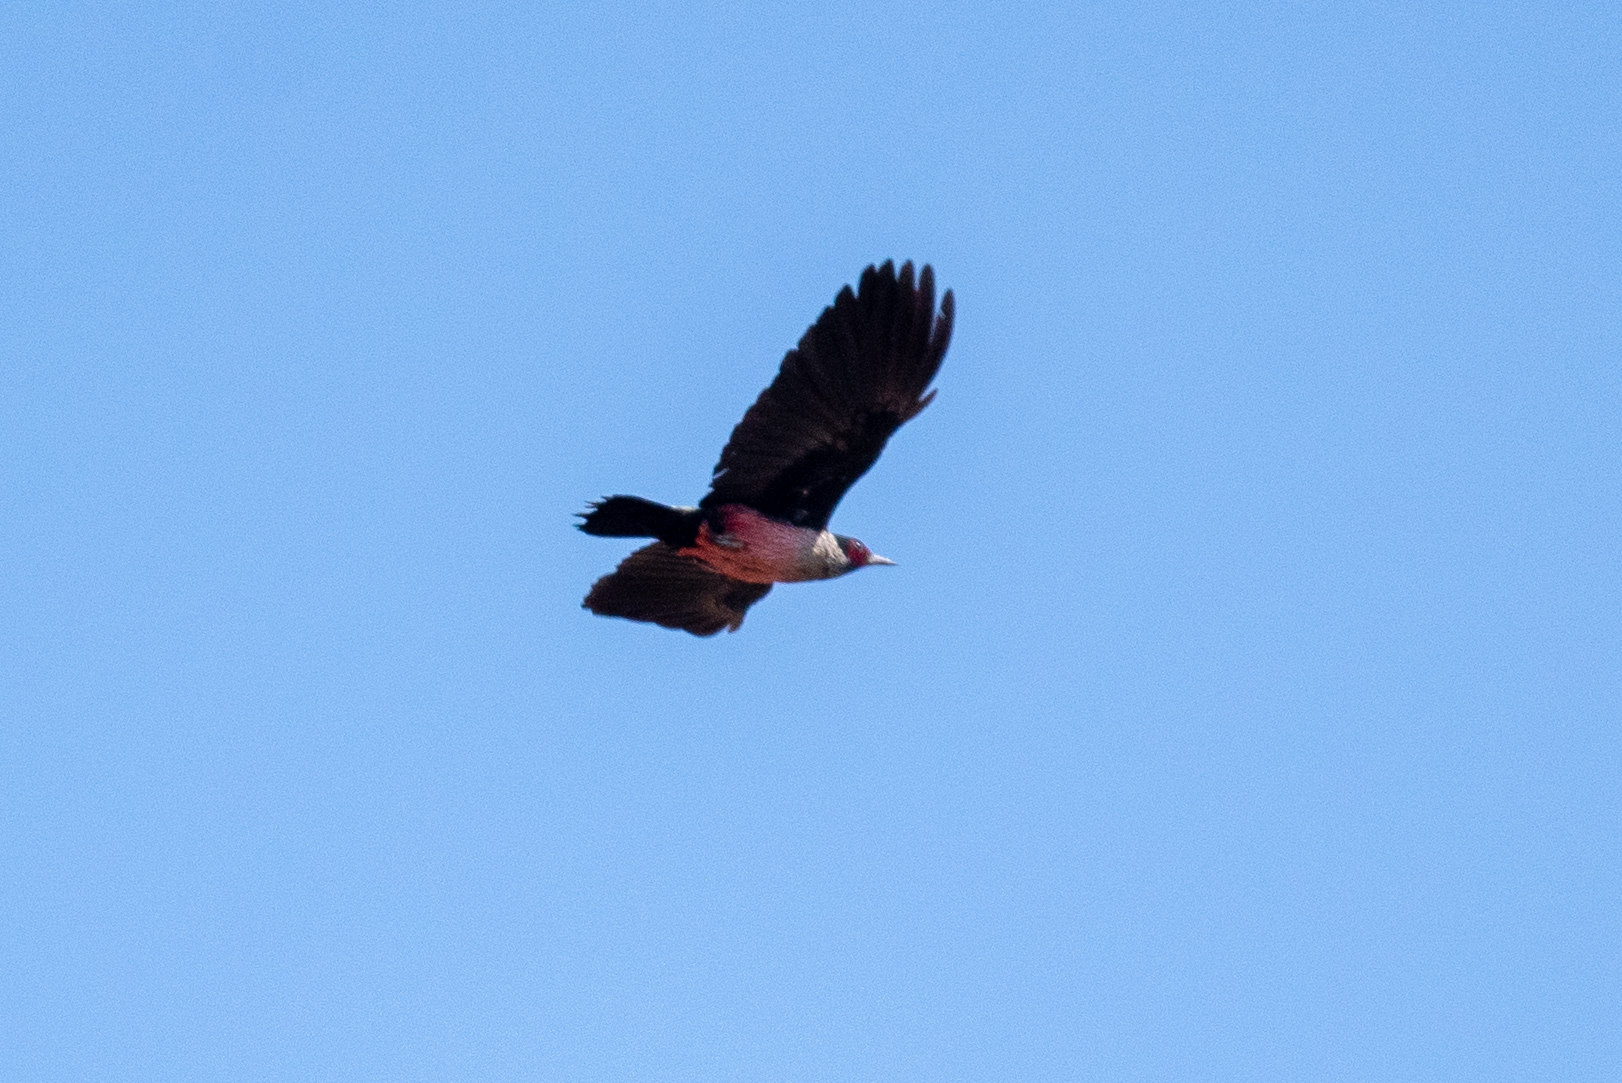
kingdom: Animalia
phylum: Chordata
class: Aves
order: Piciformes
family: Picidae
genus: Melanerpes
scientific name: Melanerpes lewis
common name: Lewis's woodpecker
